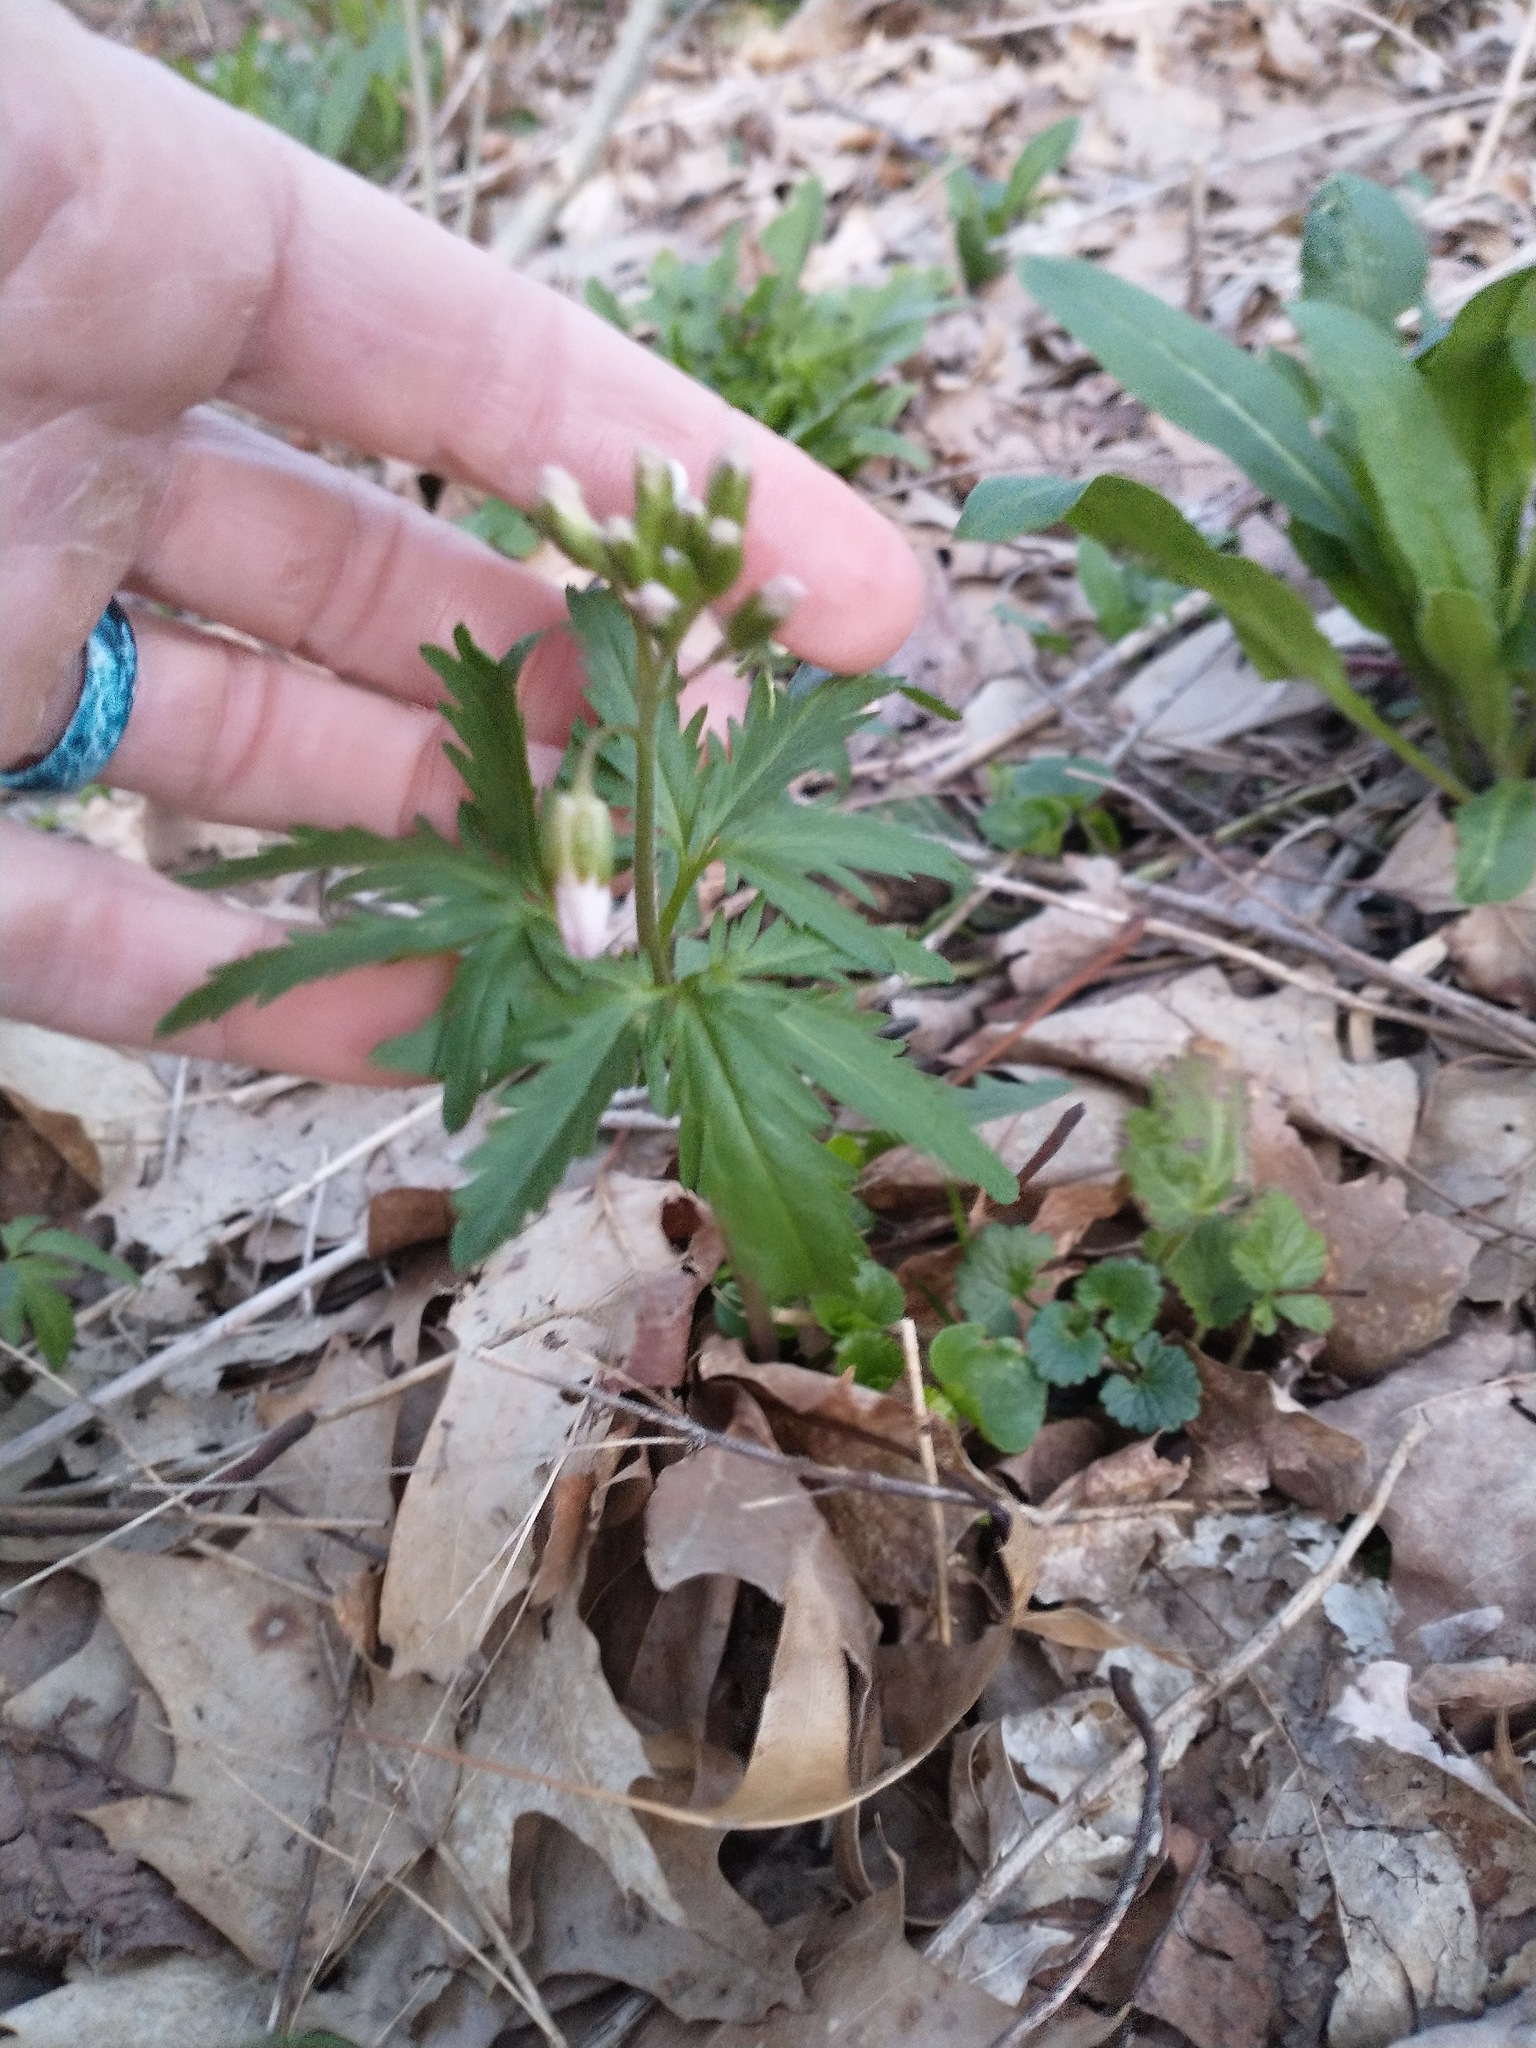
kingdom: Plantae
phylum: Tracheophyta
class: Magnoliopsida
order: Brassicales
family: Brassicaceae
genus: Cardamine
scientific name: Cardamine concatenata
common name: Cut-leaf toothcup
